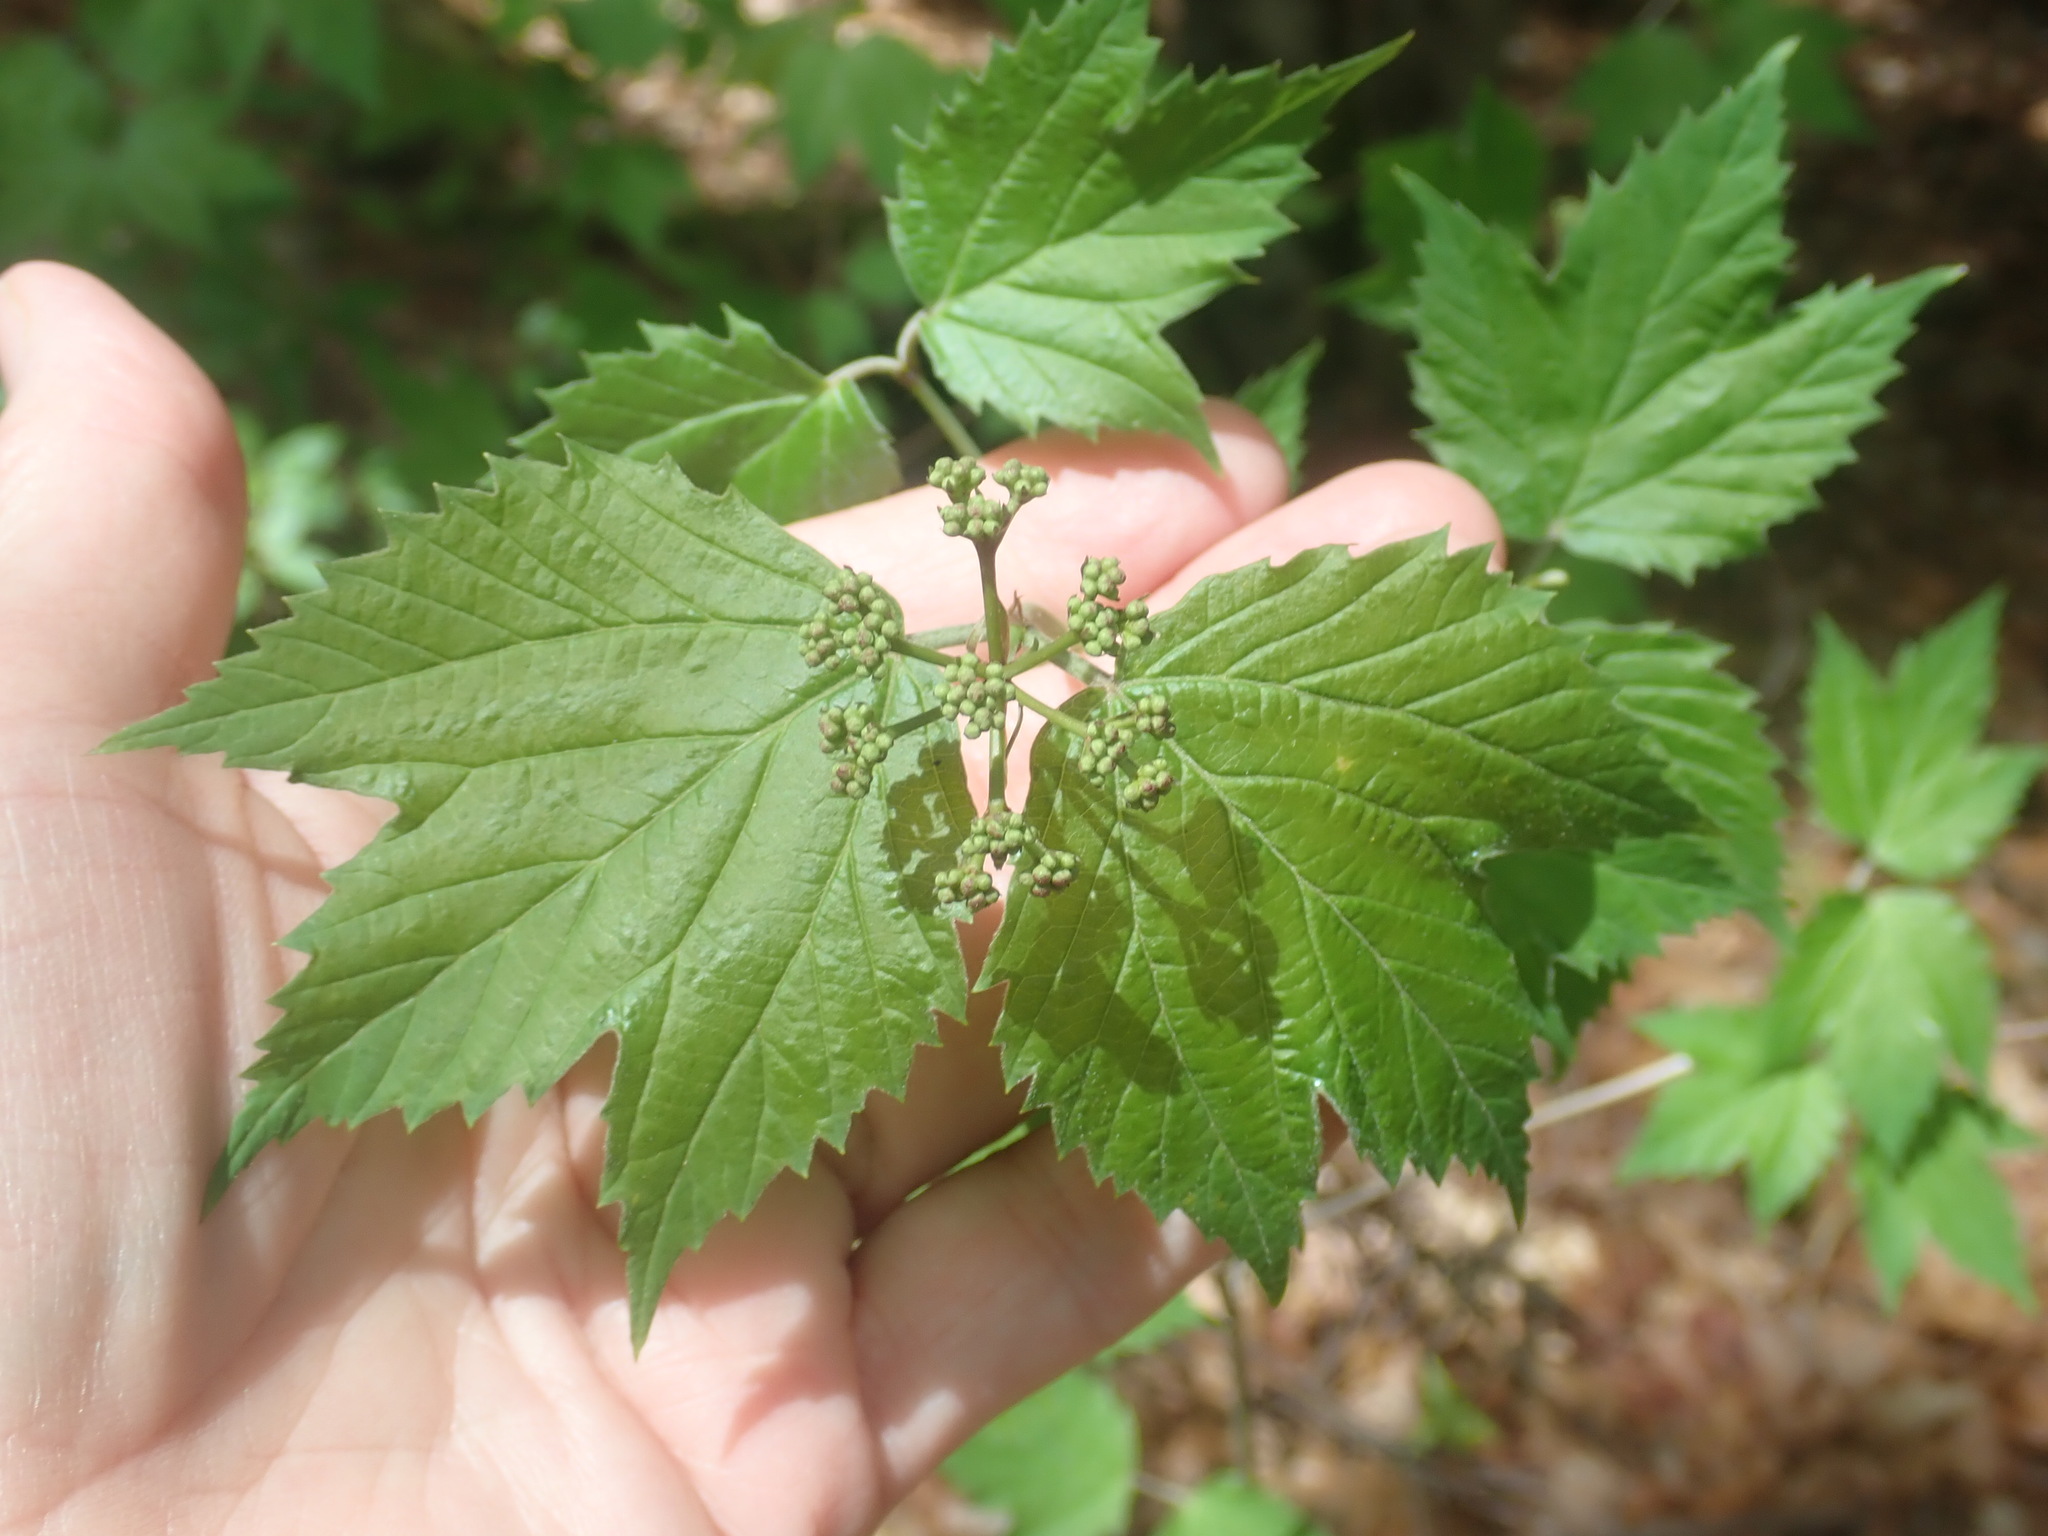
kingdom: Plantae
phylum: Tracheophyta
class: Magnoliopsida
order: Dipsacales
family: Viburnaceae
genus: Viburnum
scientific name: Viburnum acerifolium
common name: Dockmackie
